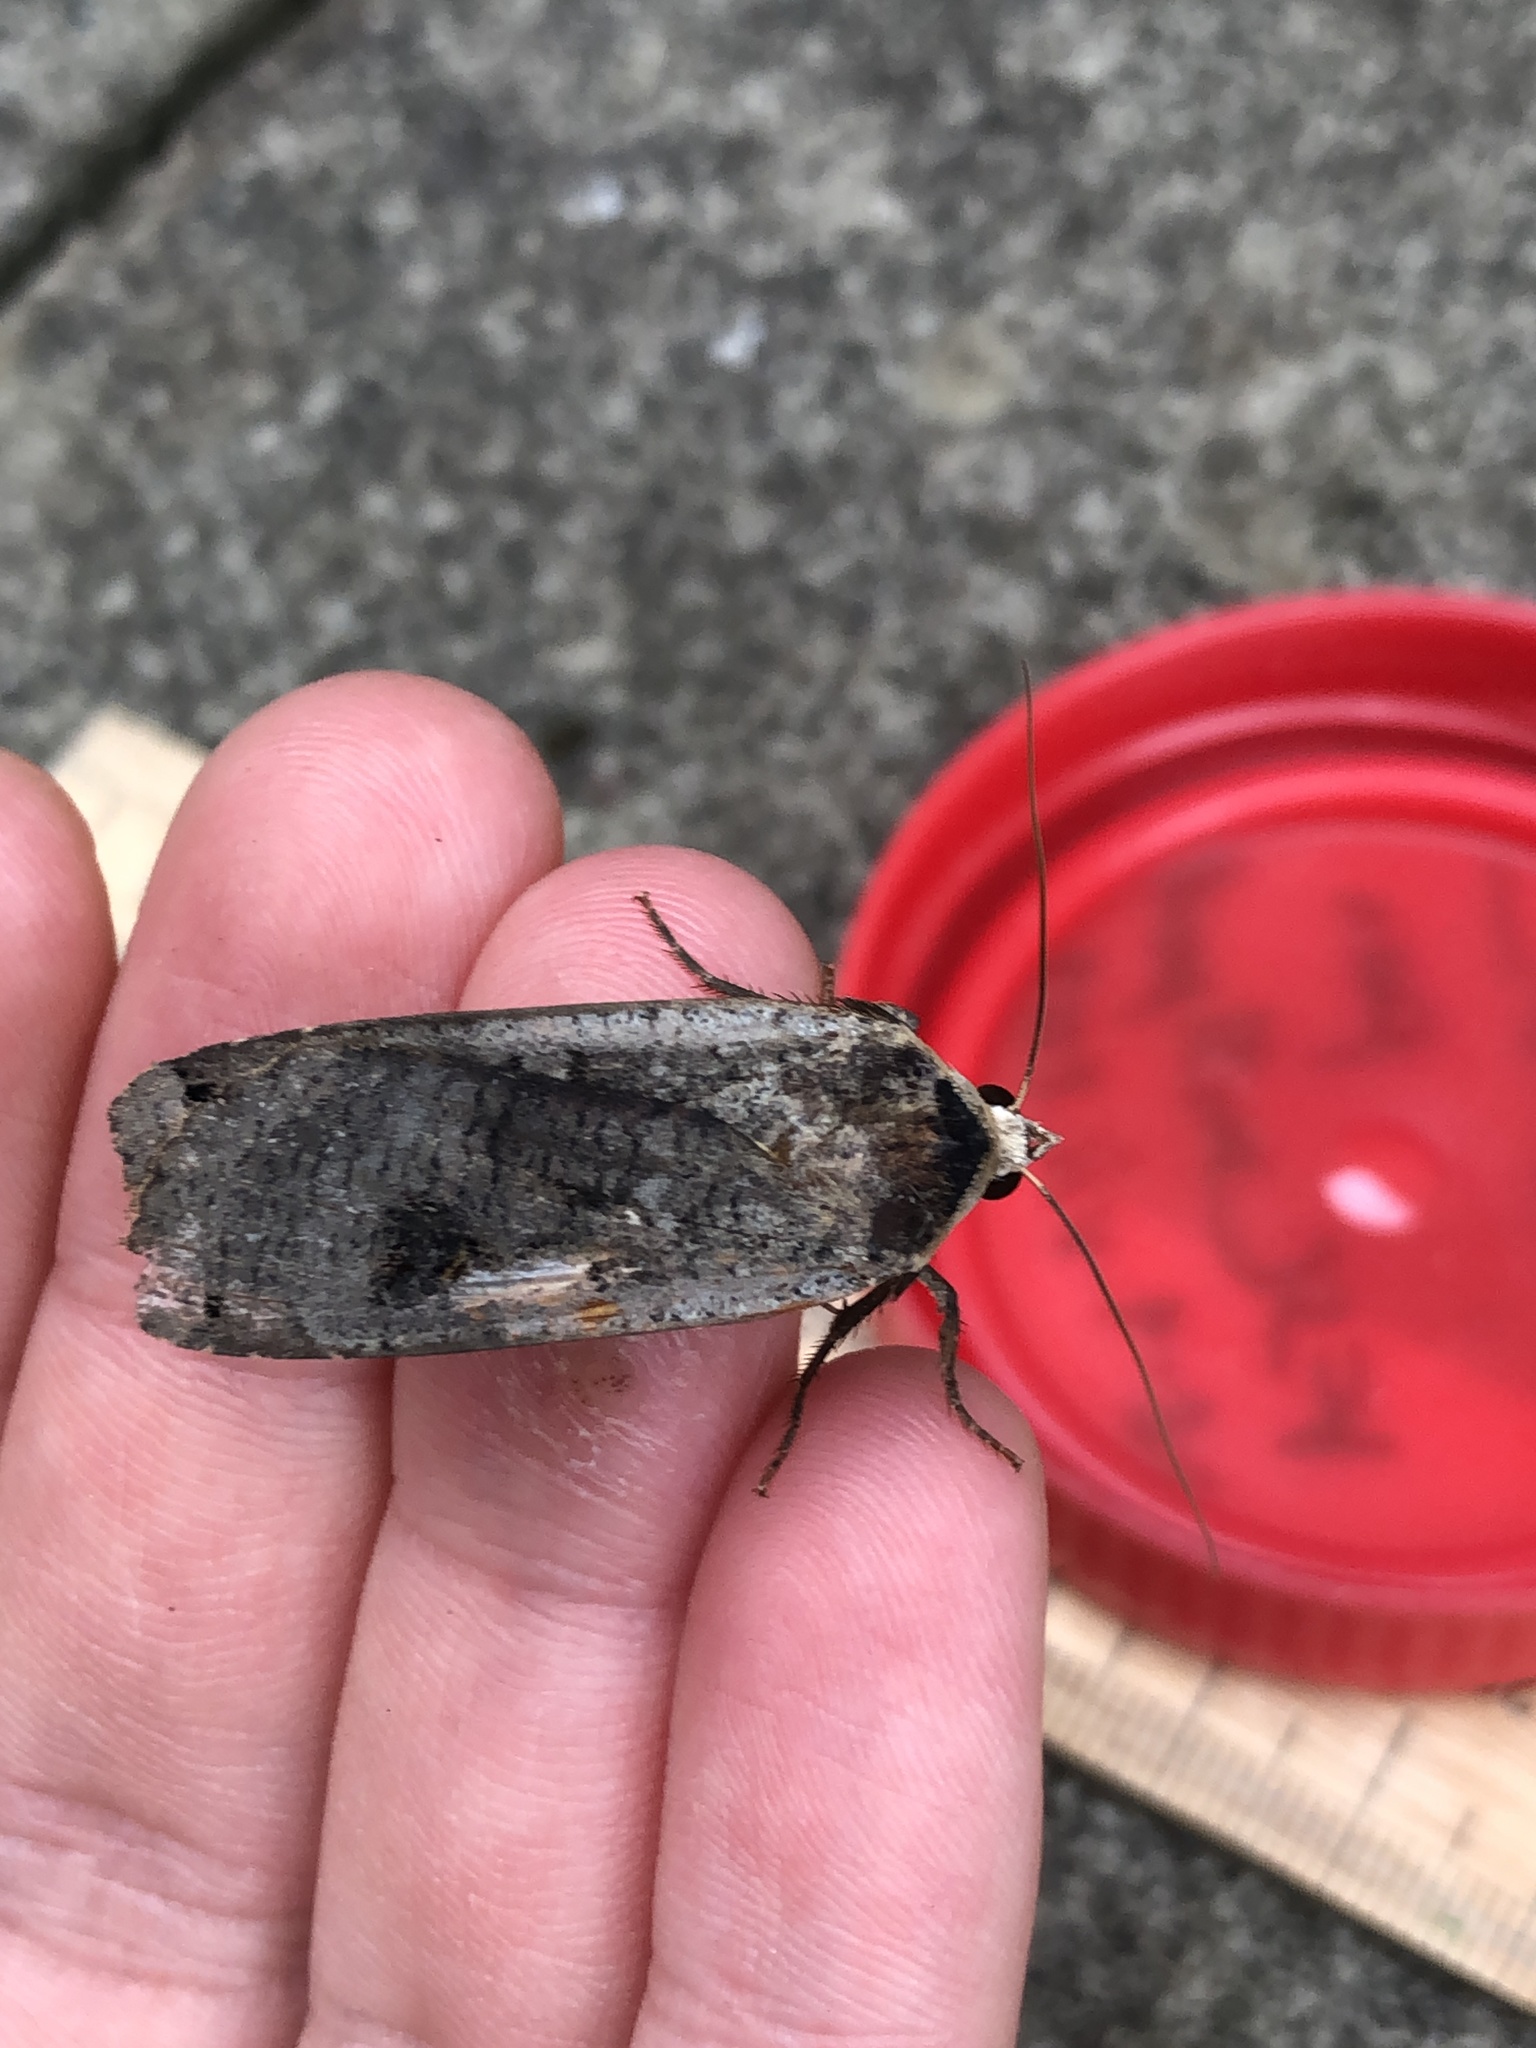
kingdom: Animalia
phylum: Arthropoda
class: Insecta
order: Lepidoptera
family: Noctuidae
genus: Noctua
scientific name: Noctua pronuba
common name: Large yellow underwing
